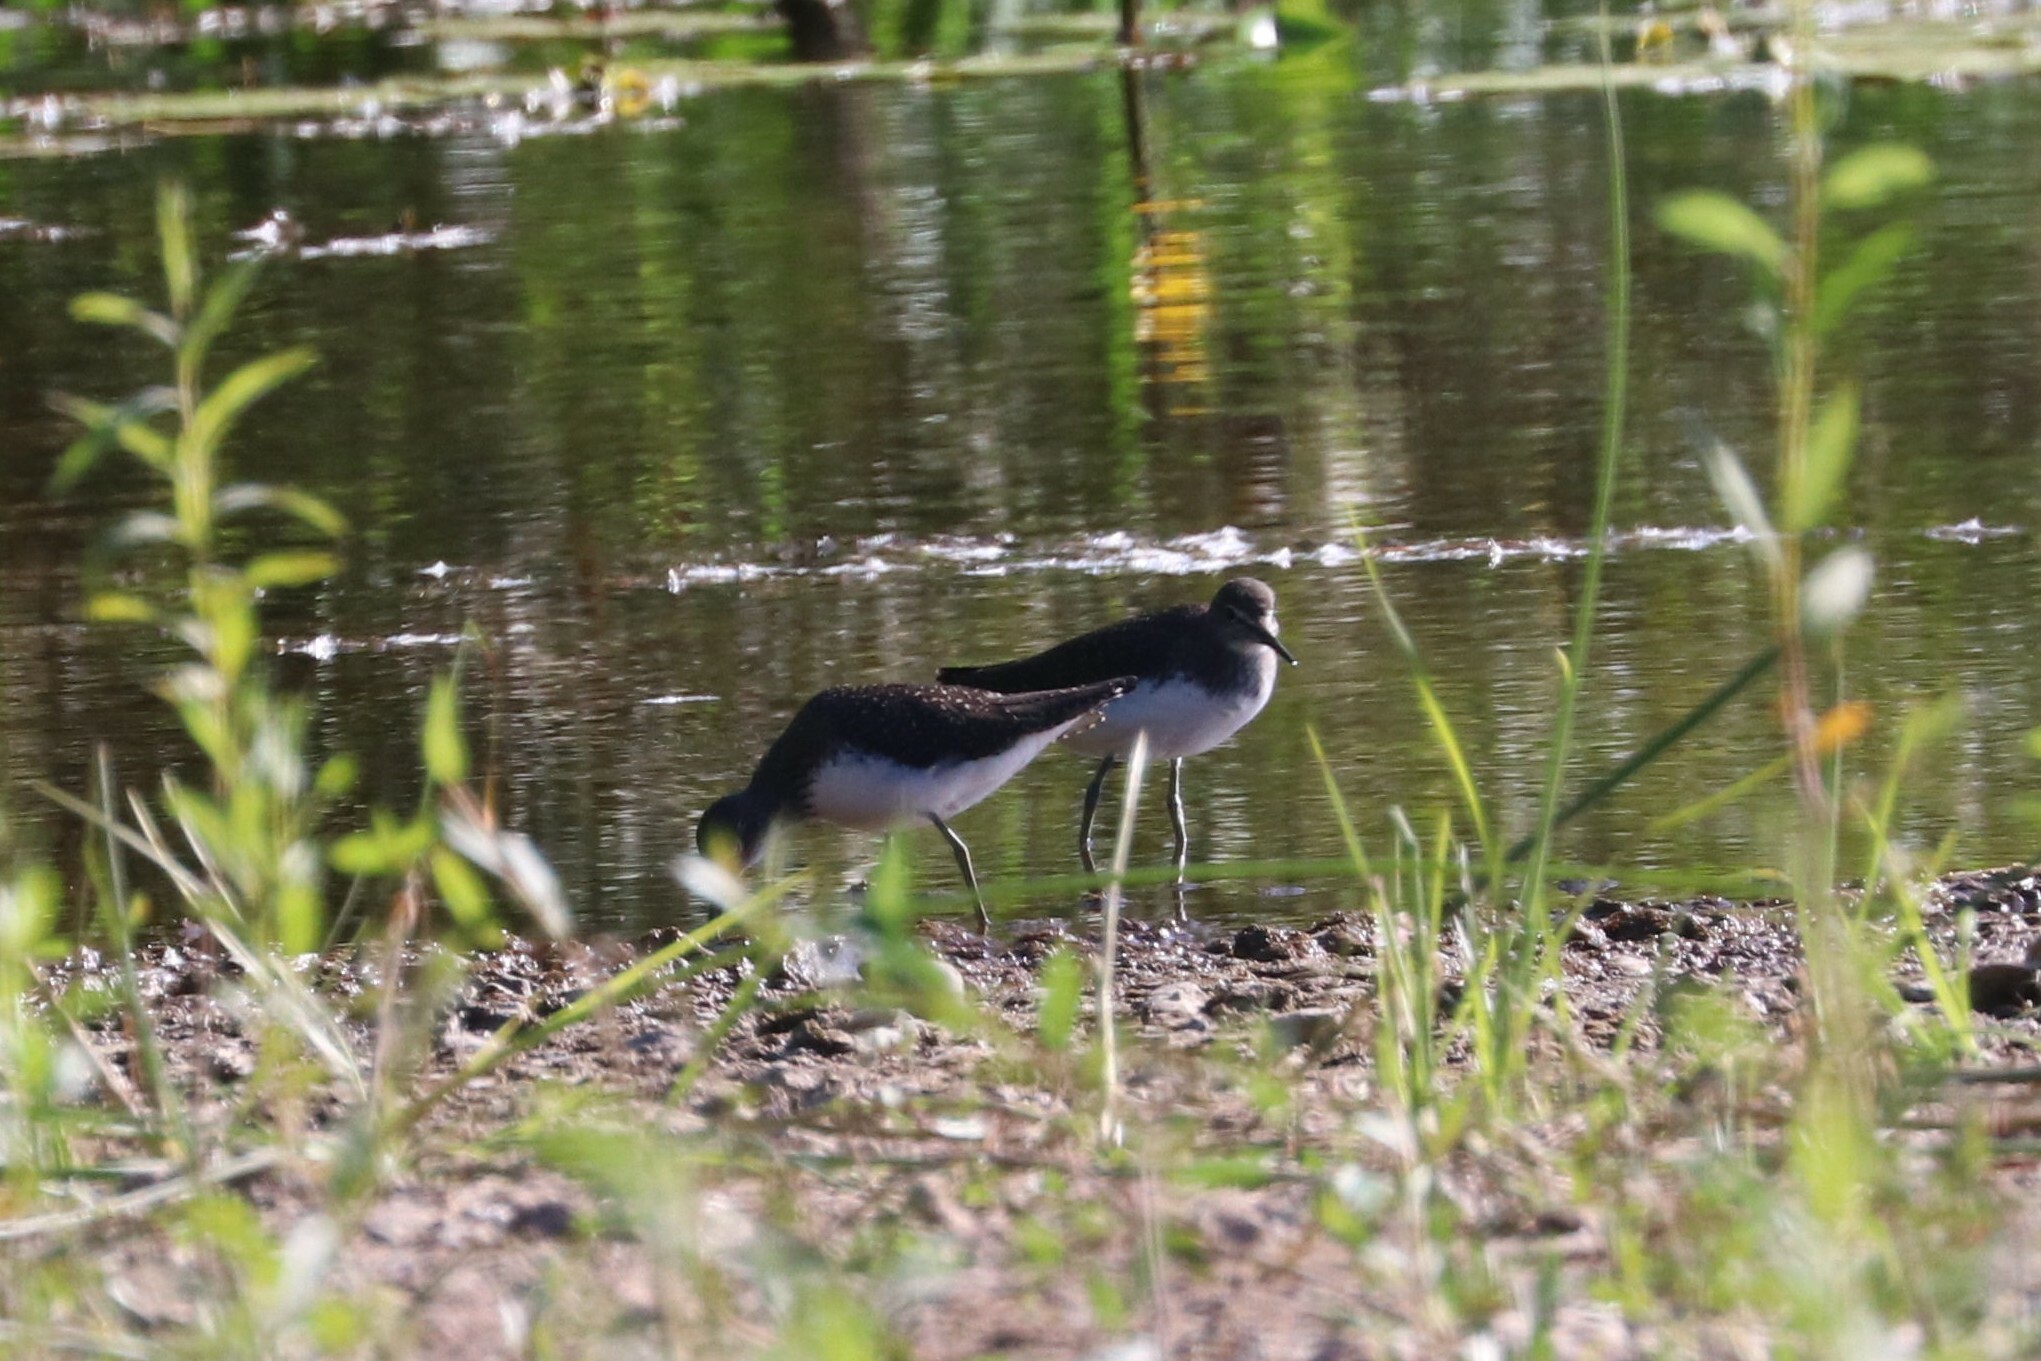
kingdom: Animalia
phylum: Chordata
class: Aves
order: Charadriiformes
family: Scolopacidae
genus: Tringa
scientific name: Tringa ochropus
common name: Green sandpiper
